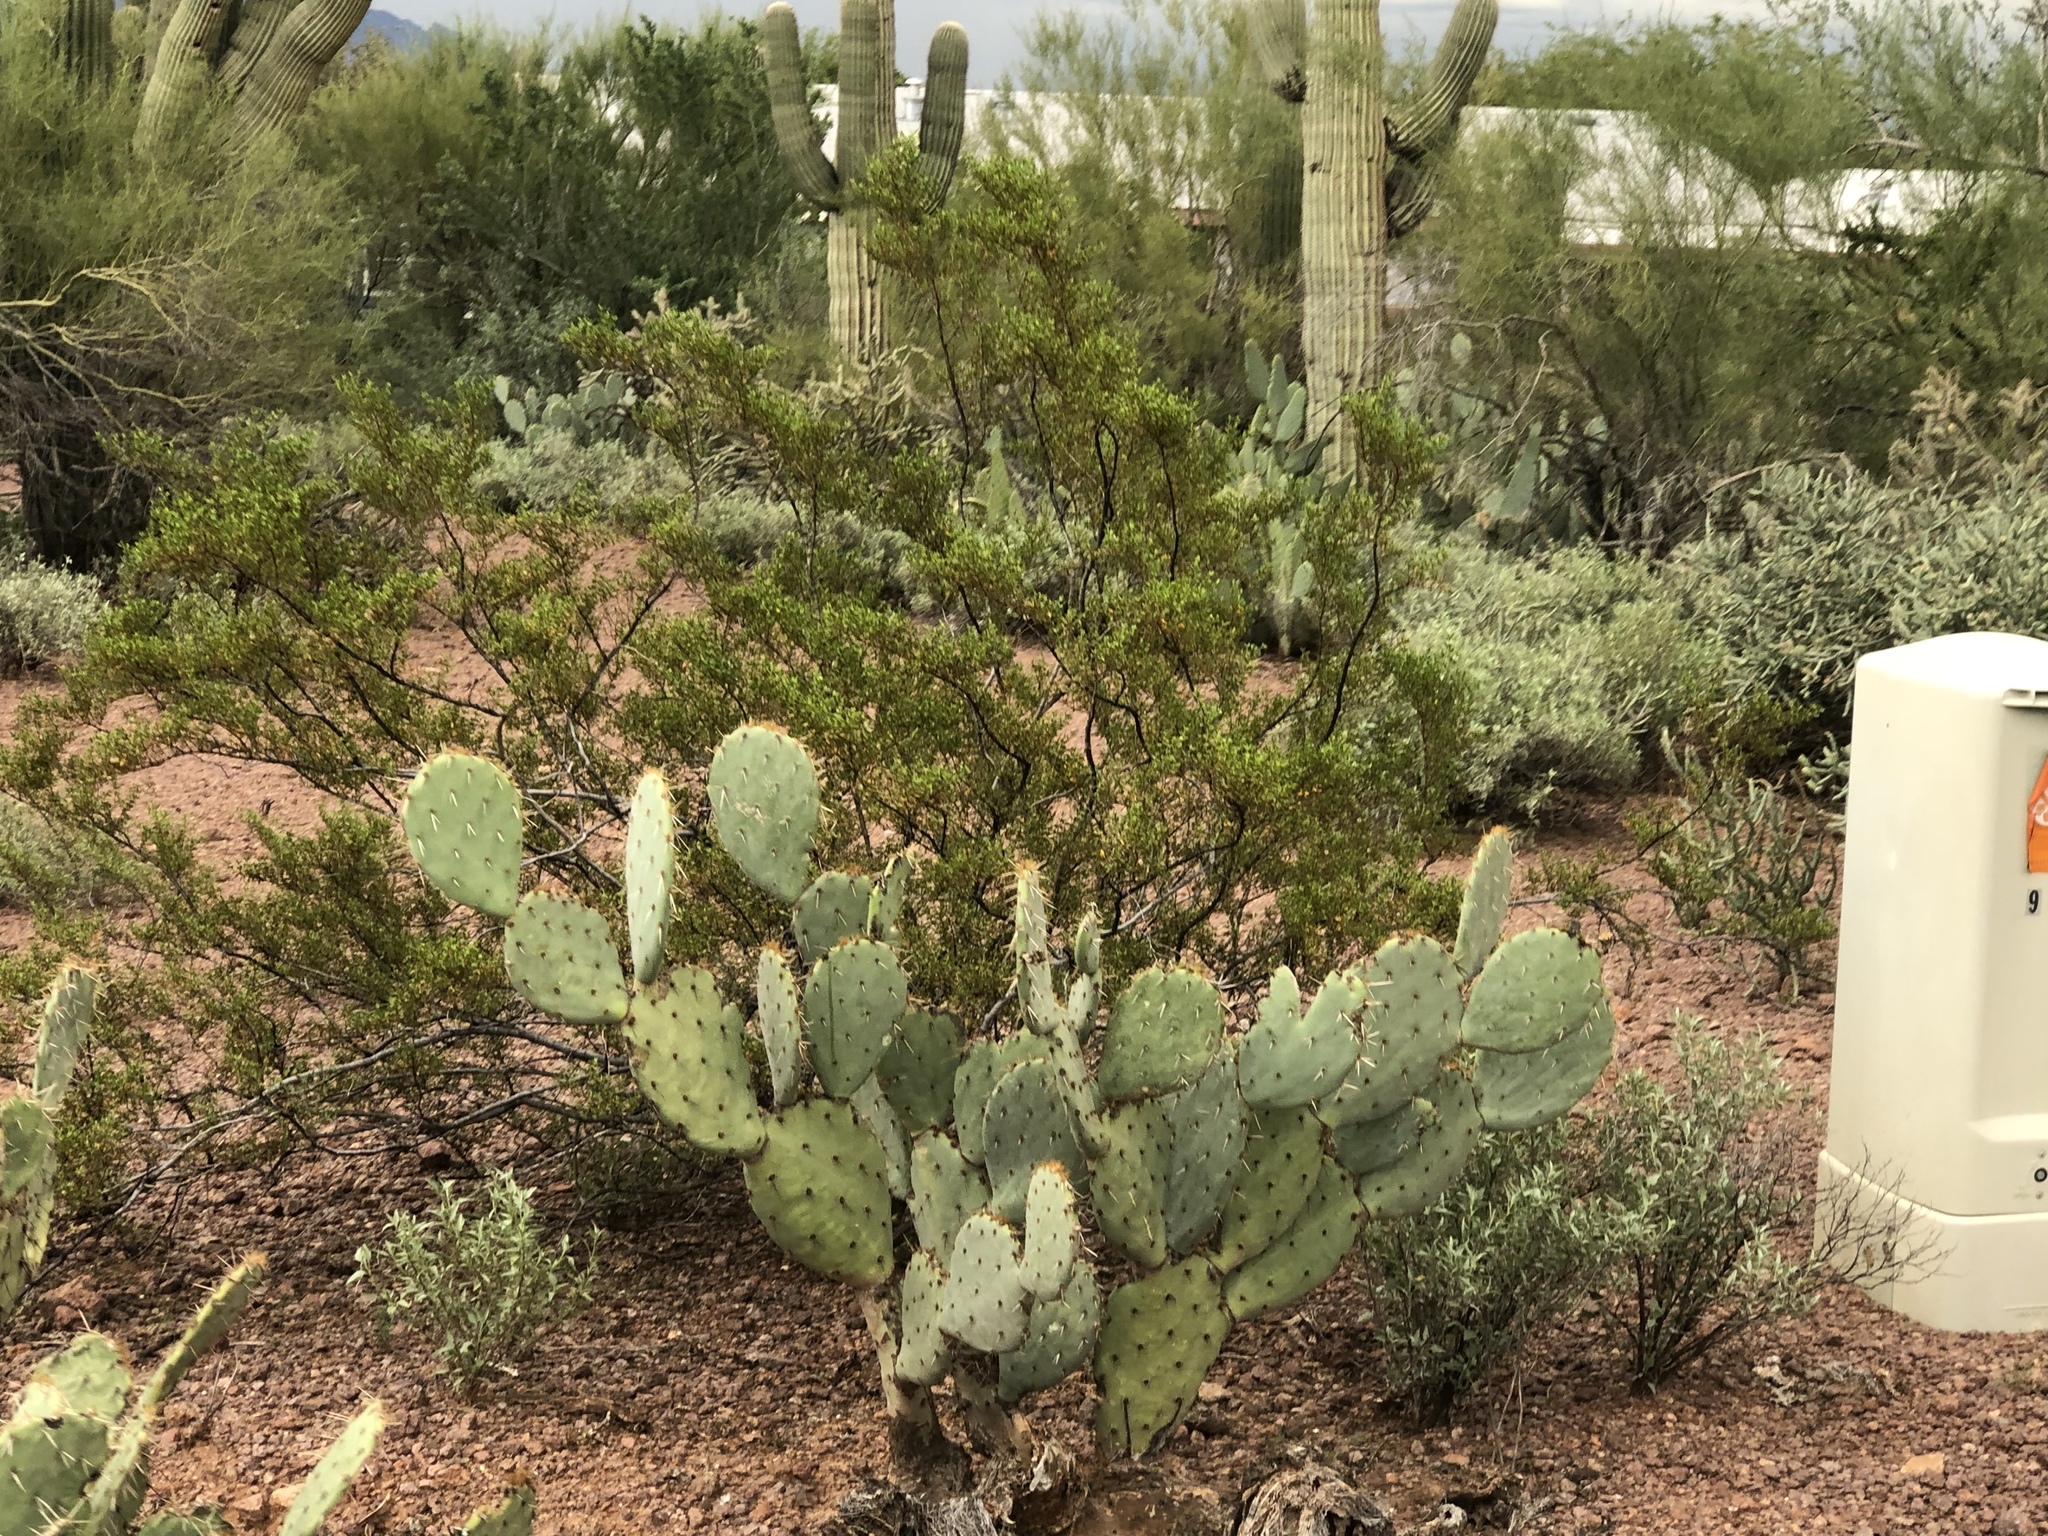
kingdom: Plantae
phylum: Tracheophyta
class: Magnoliopsida
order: Caryophyllales
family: Cactaceae
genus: Opuntia
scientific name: Opuntia engelmannii
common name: Cactus-apple
